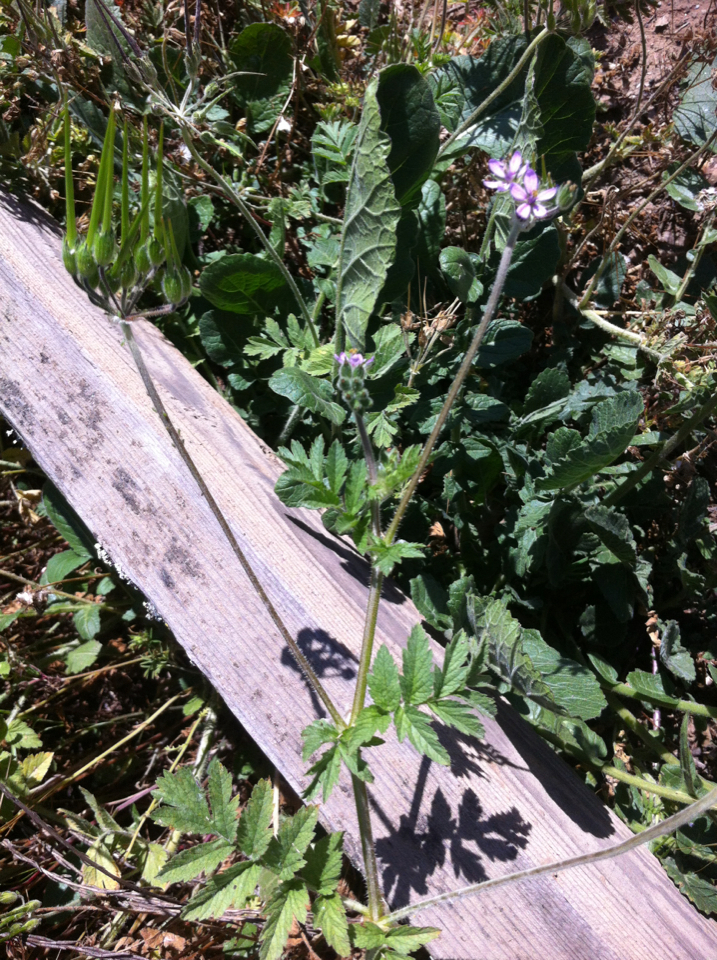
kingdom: Plantae
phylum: Tracheophyta
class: Magnoliopsida
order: Geraniales
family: Geraniaceae
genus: Erodium
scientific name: Erodium moschatum
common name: Musk stork's-bill
